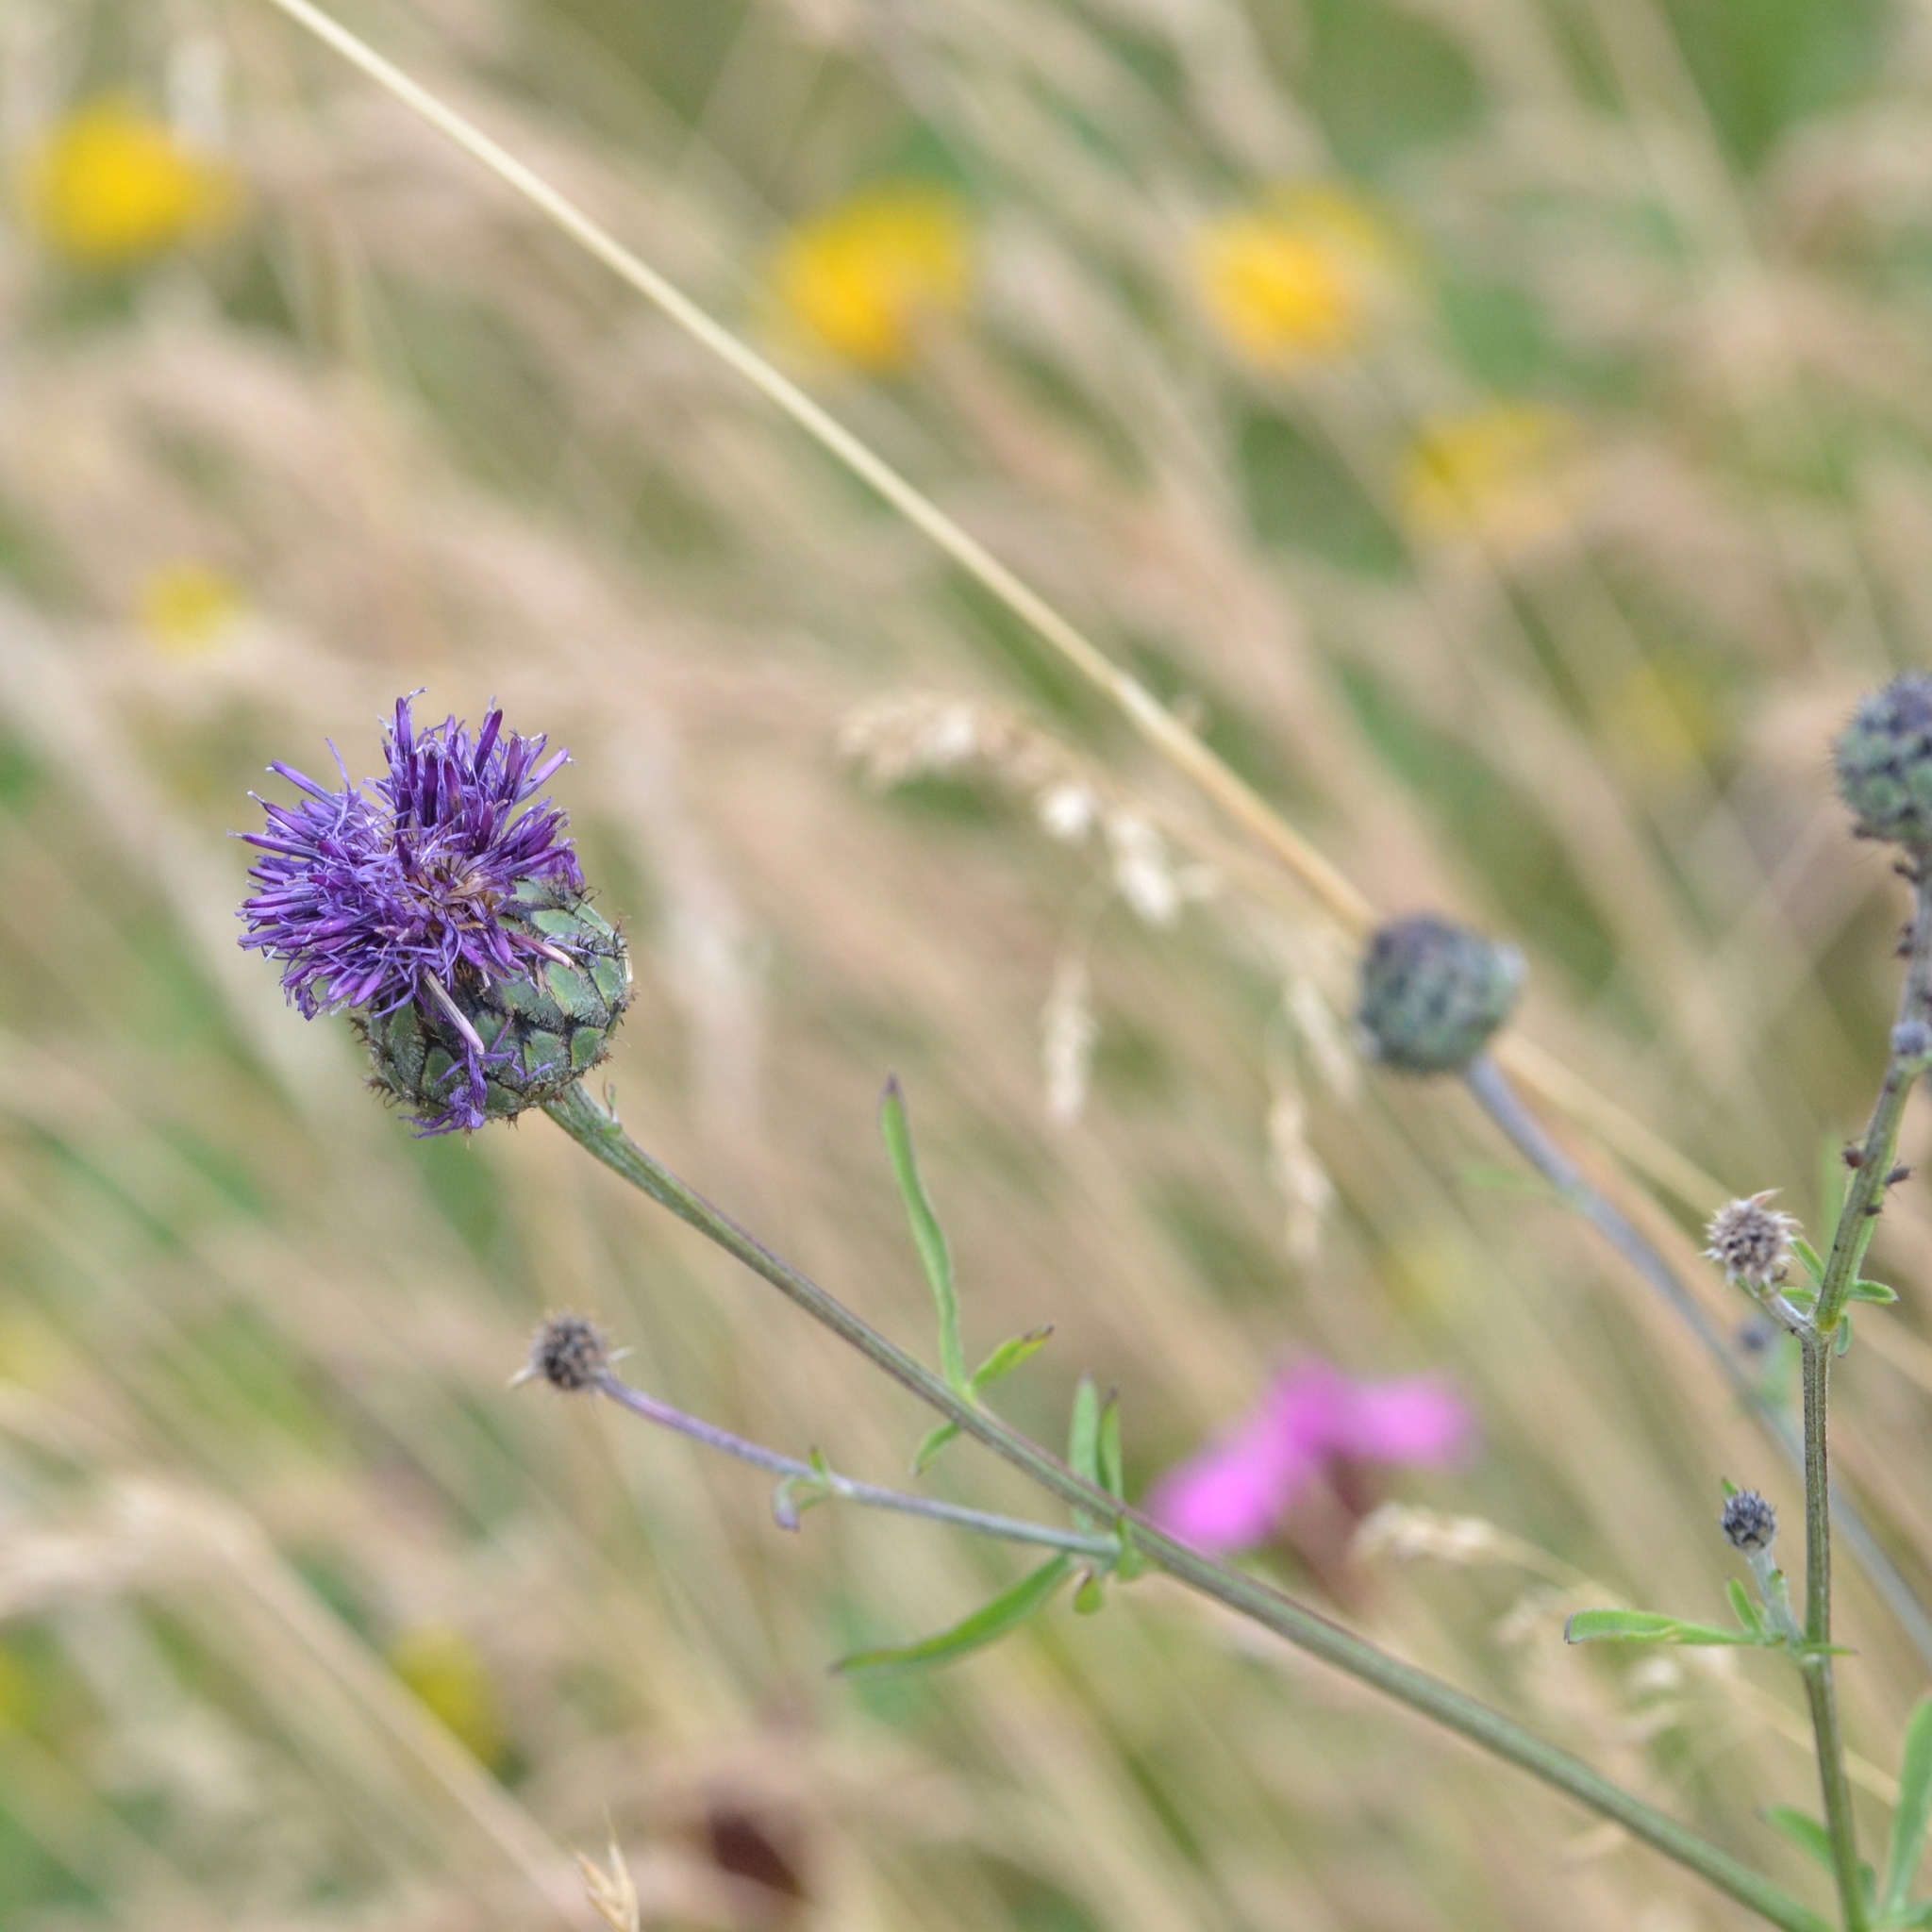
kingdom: Plantae
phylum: Tracheophyta
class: Magnoliopsida
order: Asterales
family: Asteraceae
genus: Centaurea
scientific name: Centaurea scabiosa
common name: Greater knapweed
